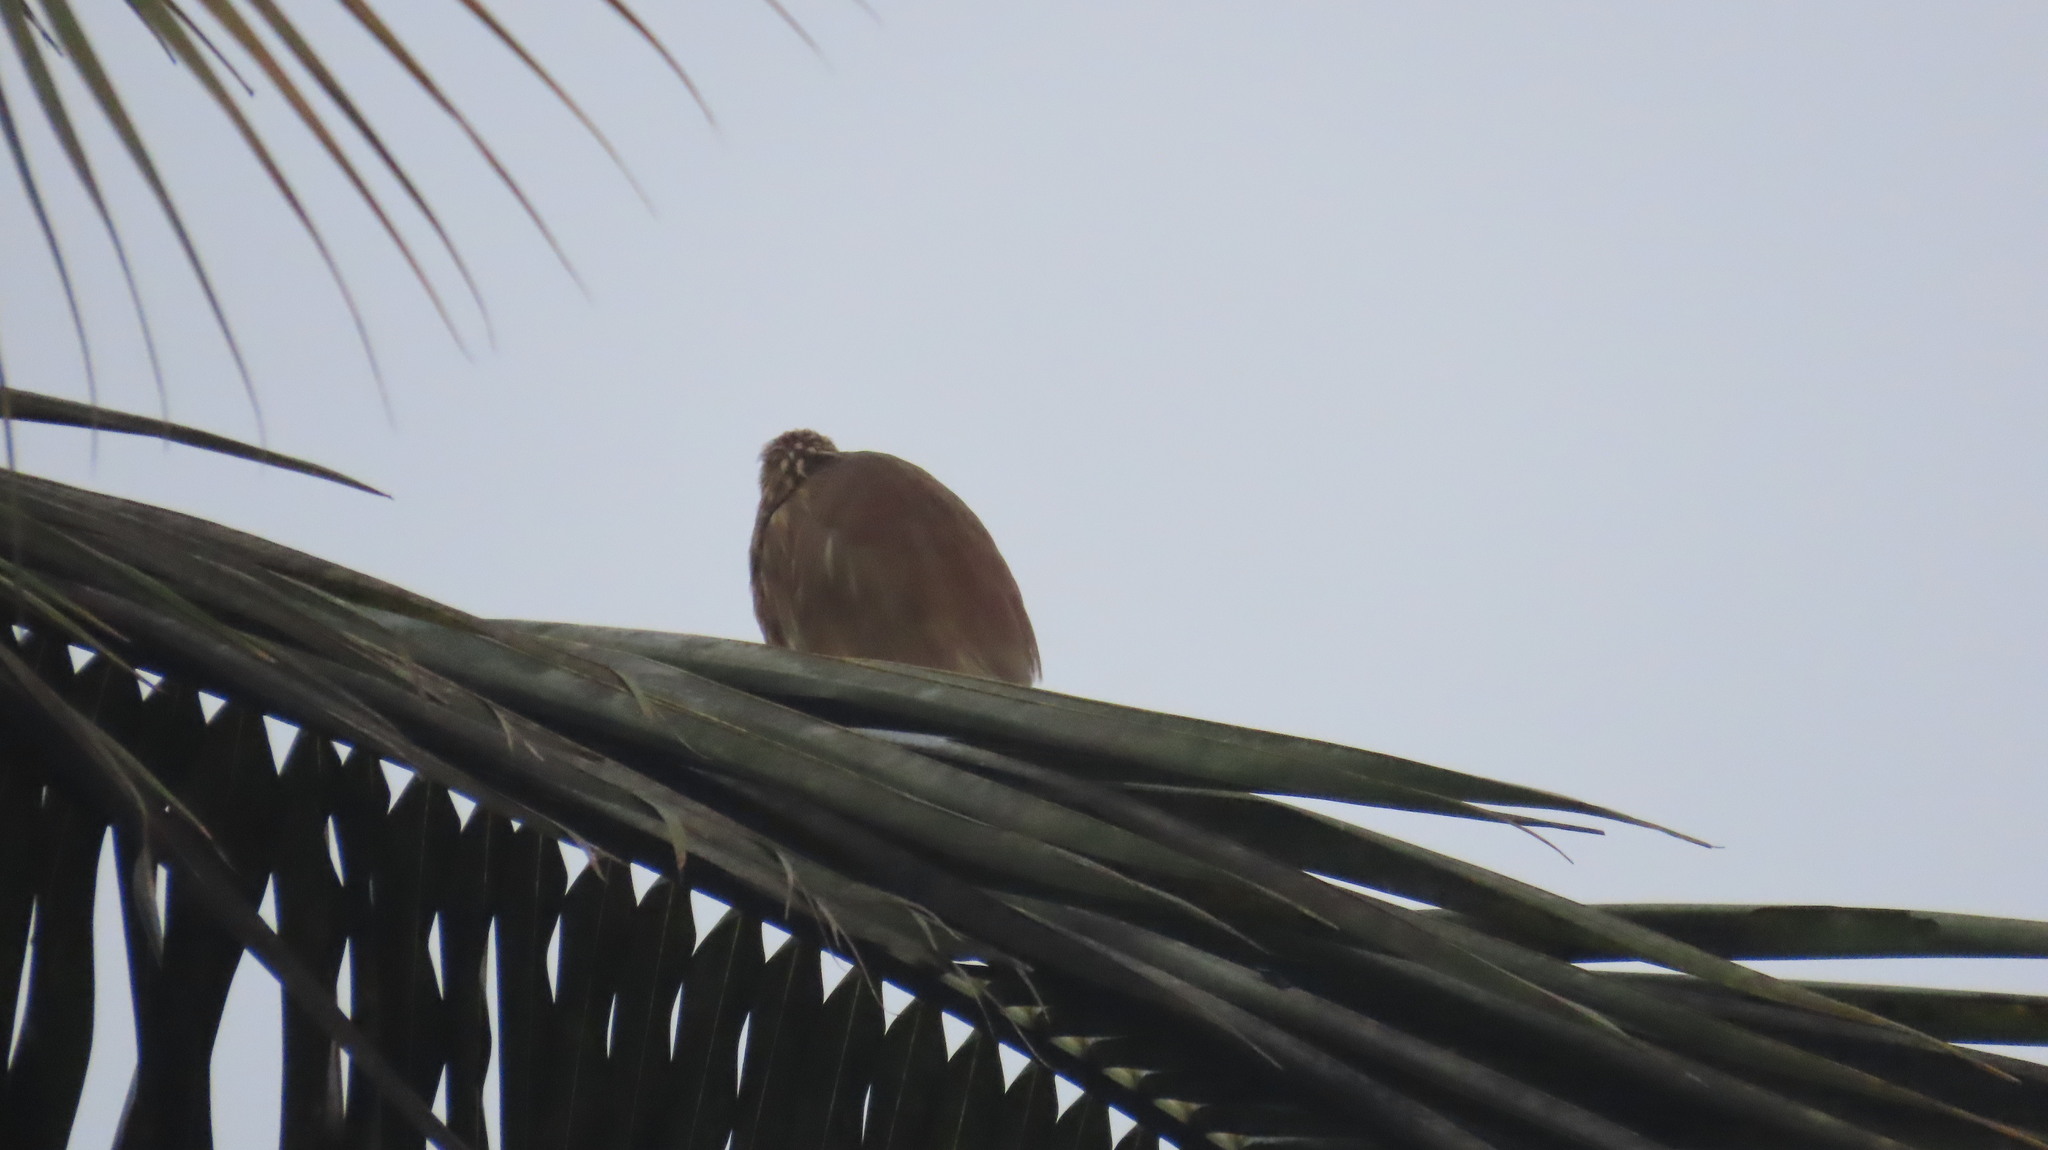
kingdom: Animalia
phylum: Chordata
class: Aves
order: Pelecaniformes
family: Ardeidae
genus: Ardeola
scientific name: Ardeola grayii
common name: Indian pond heron
